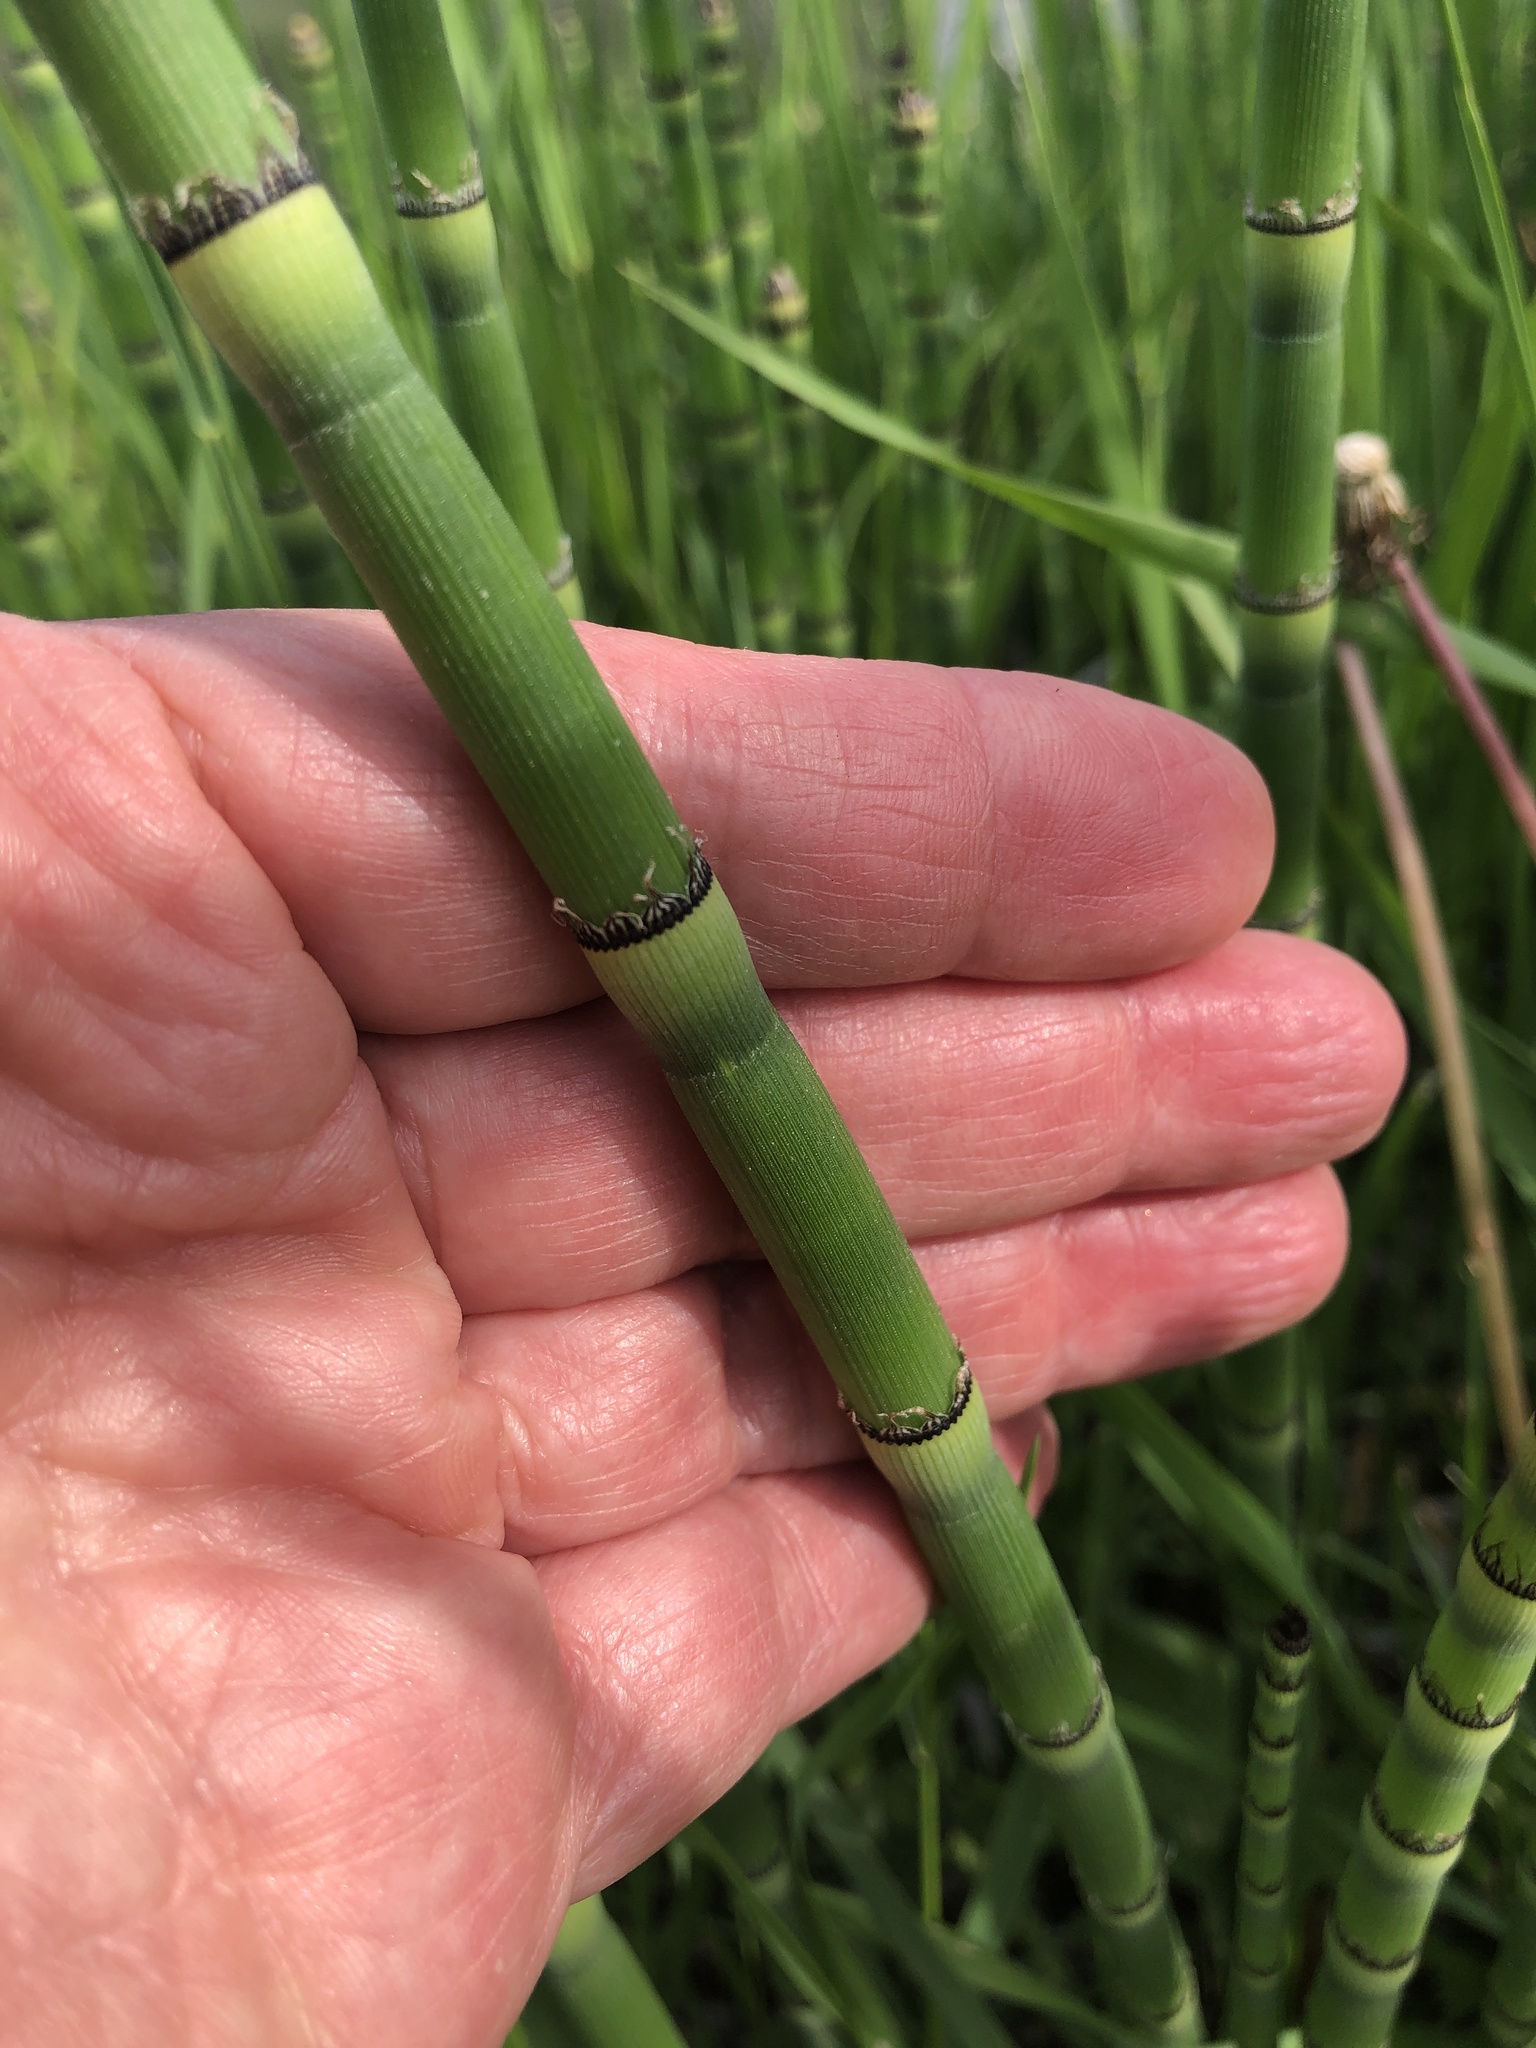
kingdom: Plantae
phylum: Tracheophyta
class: Polypodiopsida
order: Equisetales
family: Equisetaceae
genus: Equisetum
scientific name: Equisetum laevigatum
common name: Smooth scouring-rush
